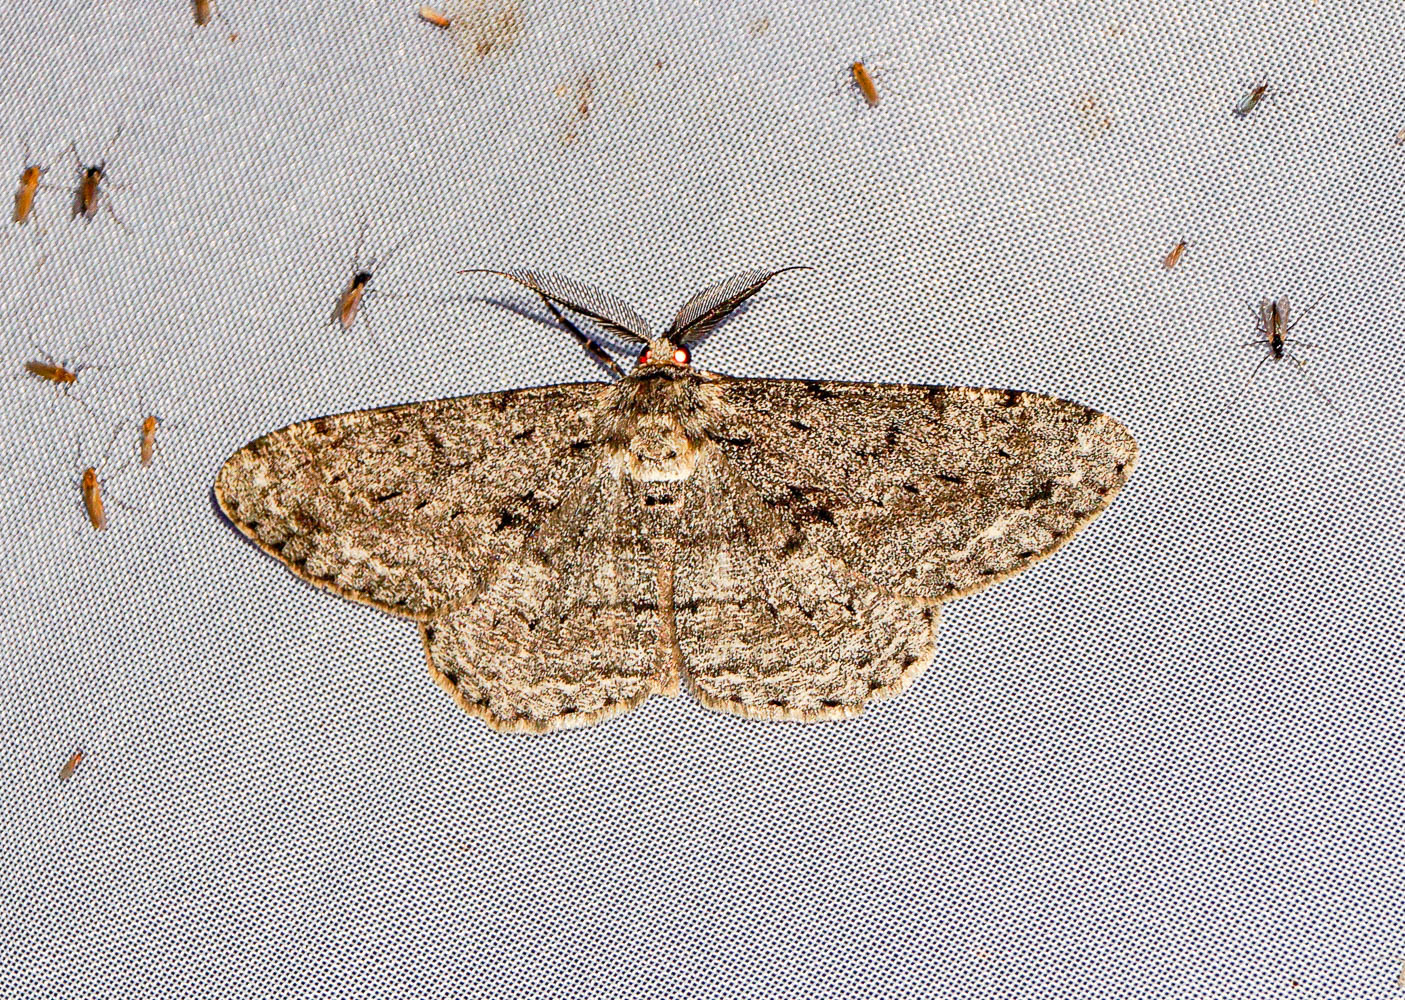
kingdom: Animalia
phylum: Arthropoda
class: Insecta
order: Lepidoptera
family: Geometridae
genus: Hypomecis
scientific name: Hypomecis roboraria
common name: Great oak beauty
